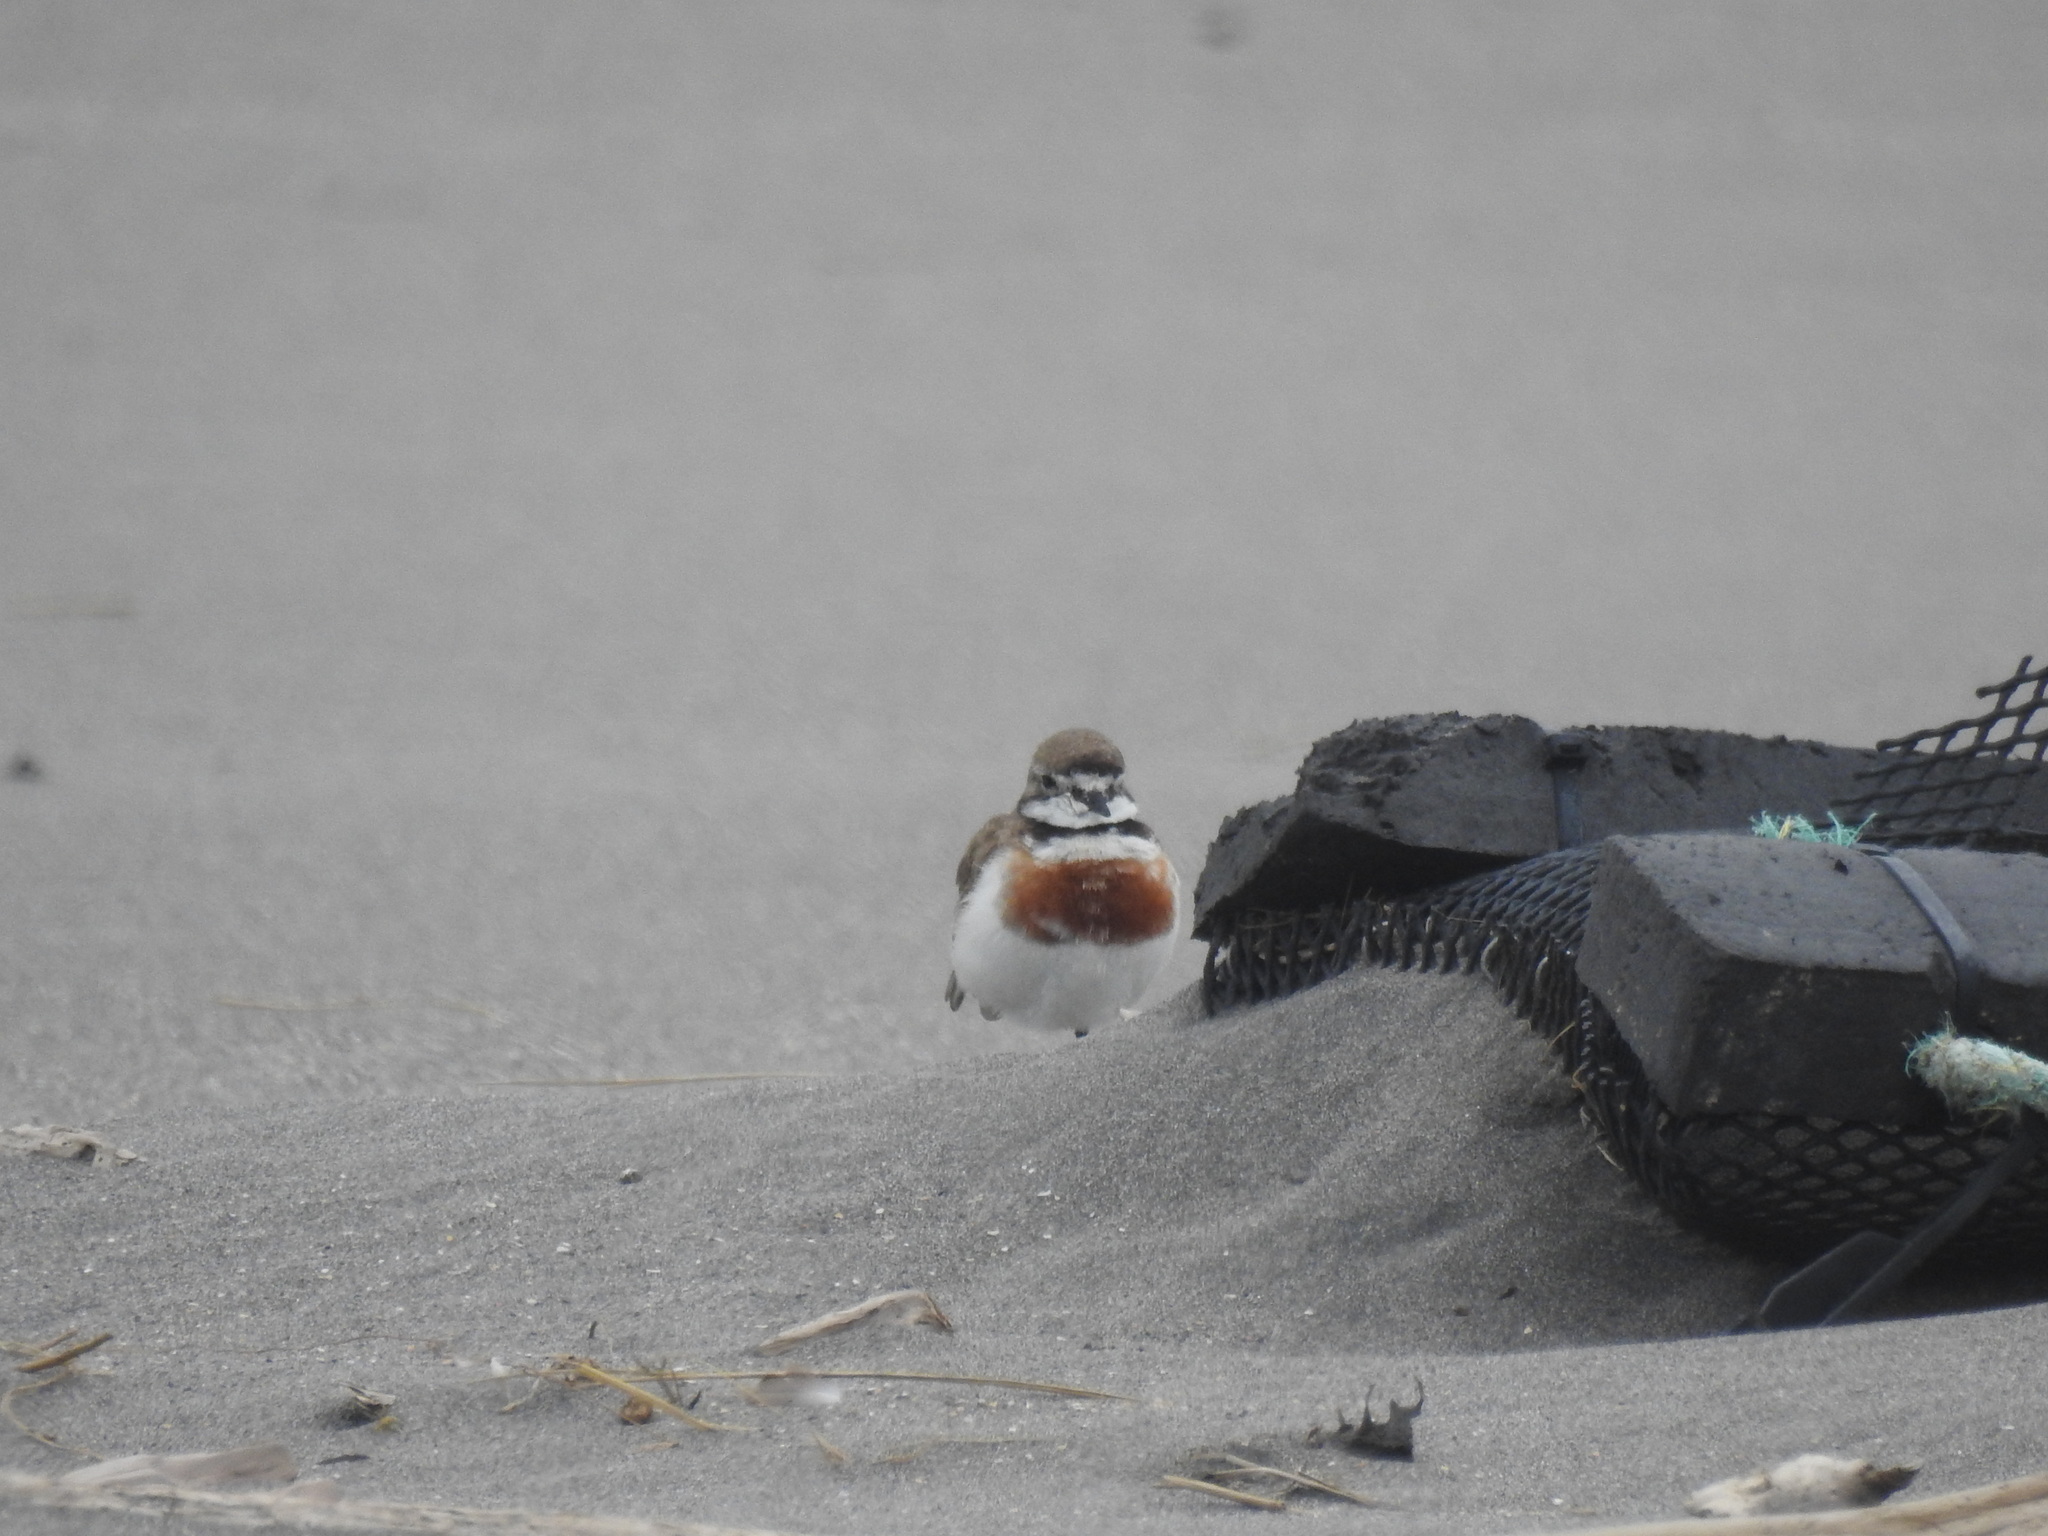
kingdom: Animalia
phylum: Chordata
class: Aves
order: Charadriiformes
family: Charadriidae
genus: Anarhynchus
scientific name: Anarhynchus
